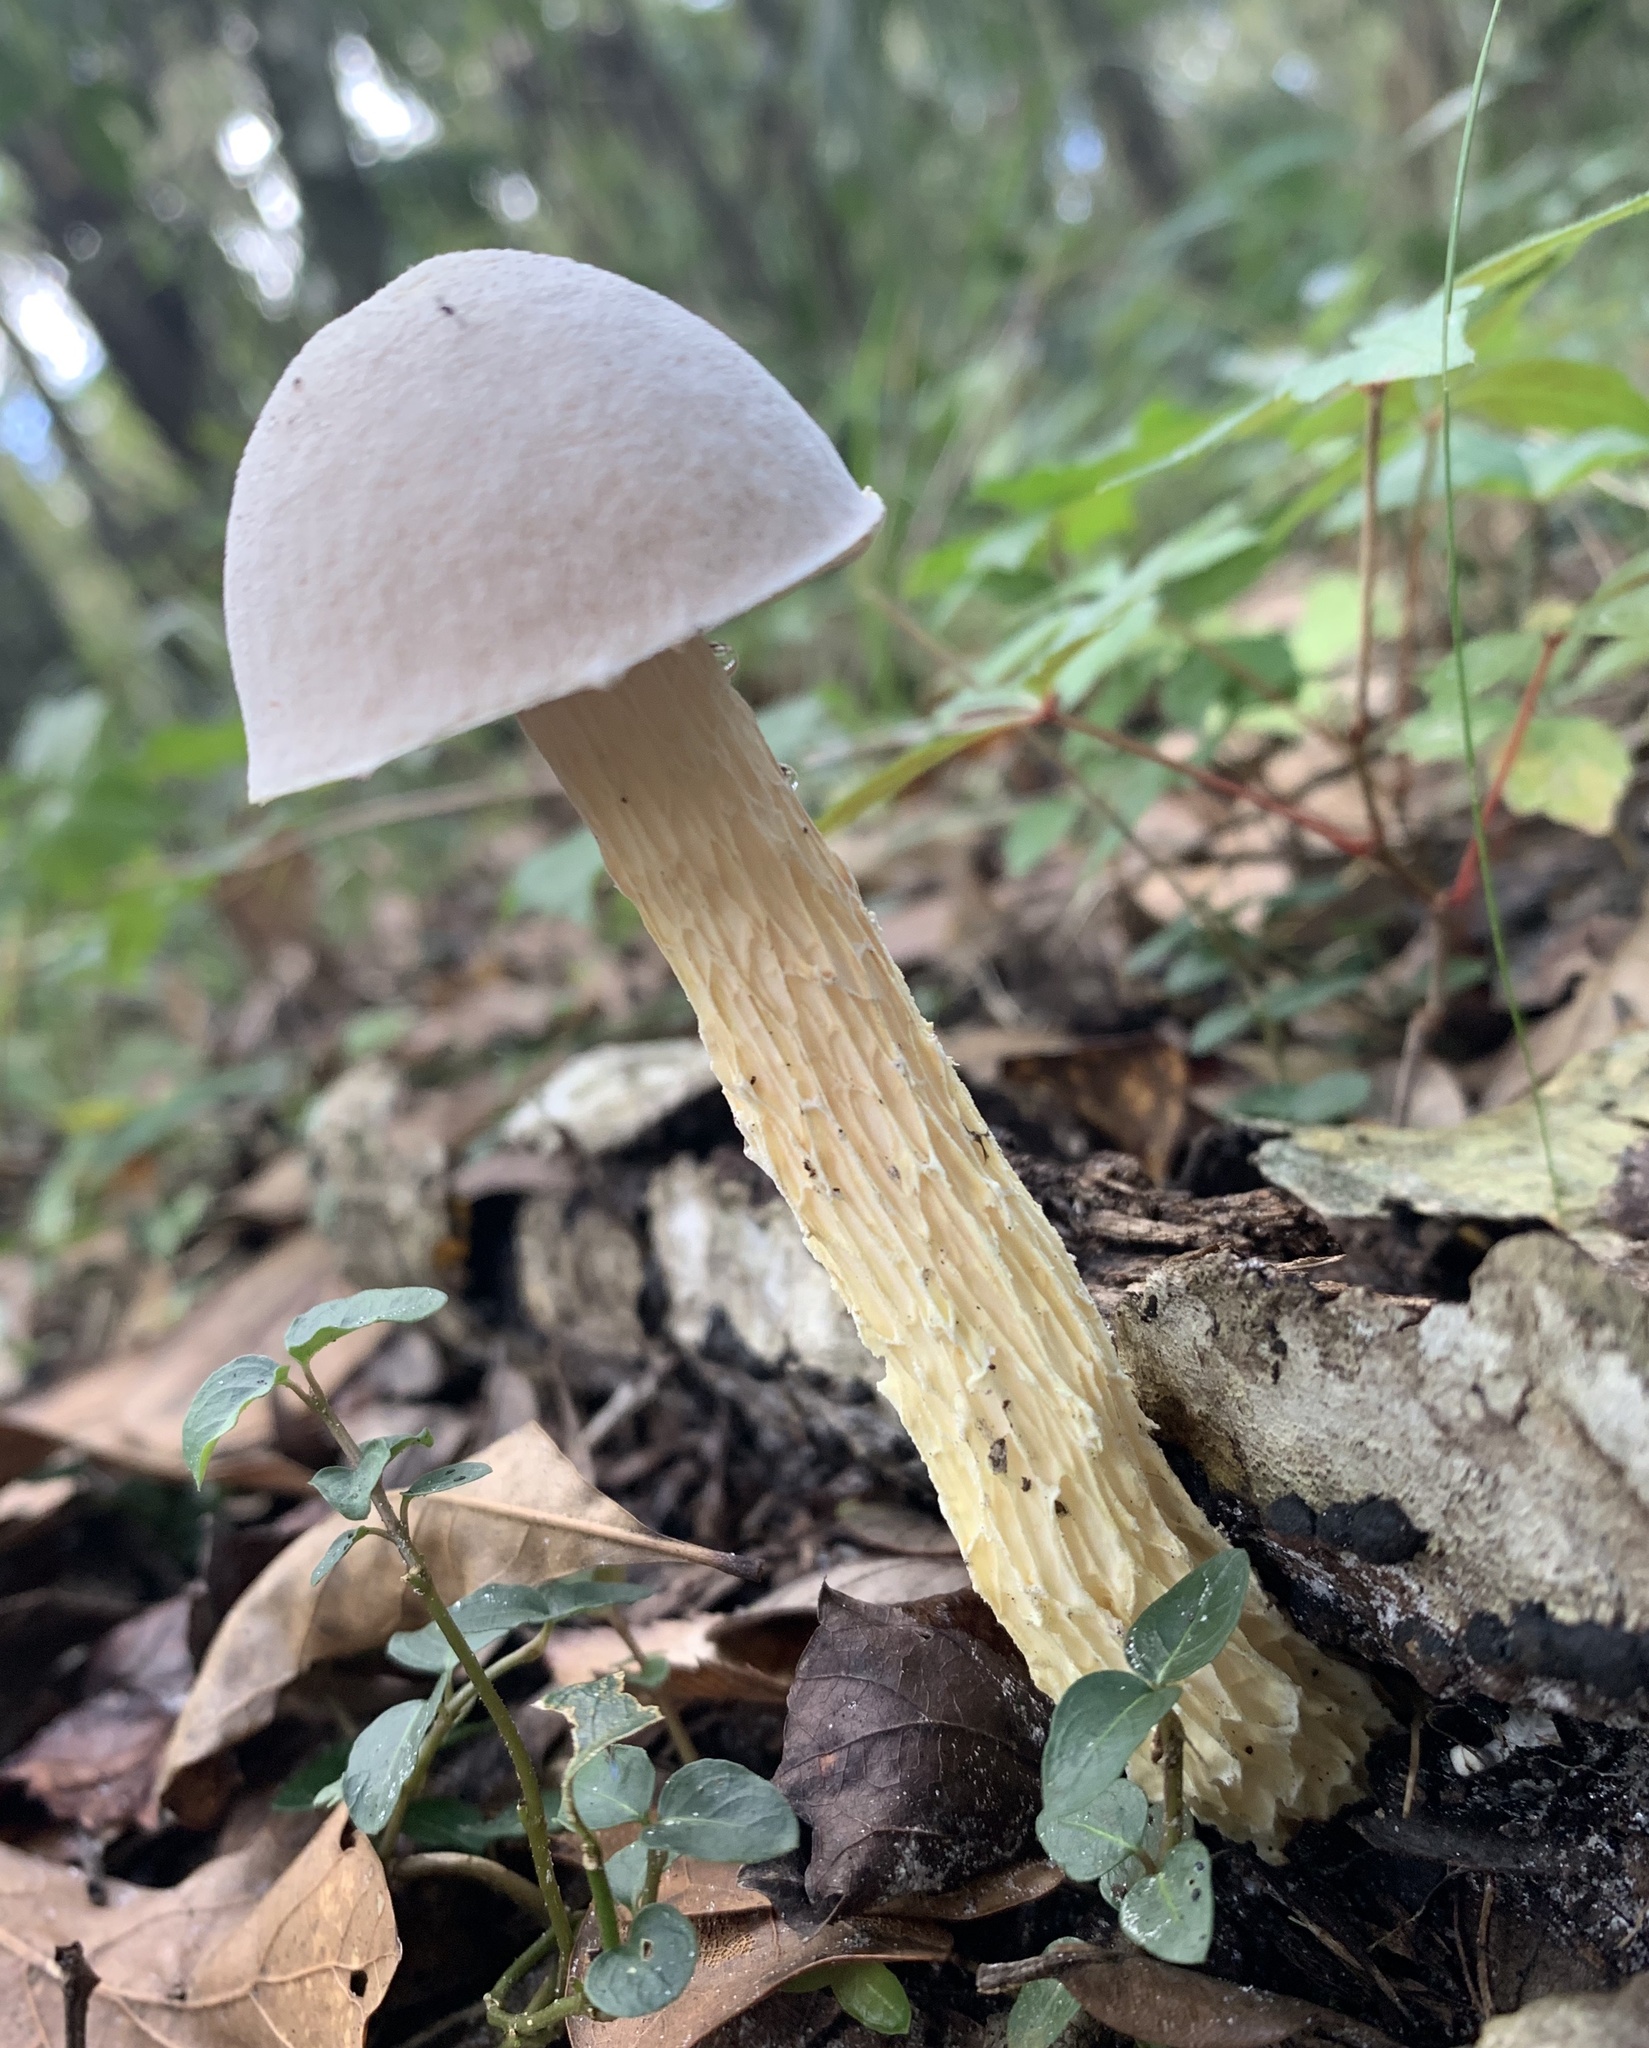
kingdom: Fungi
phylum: Basidiomycota
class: Agaricomycetes
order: Boletales
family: Boletaceae
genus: Austroboletus
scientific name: Austroboletus subflavidus
